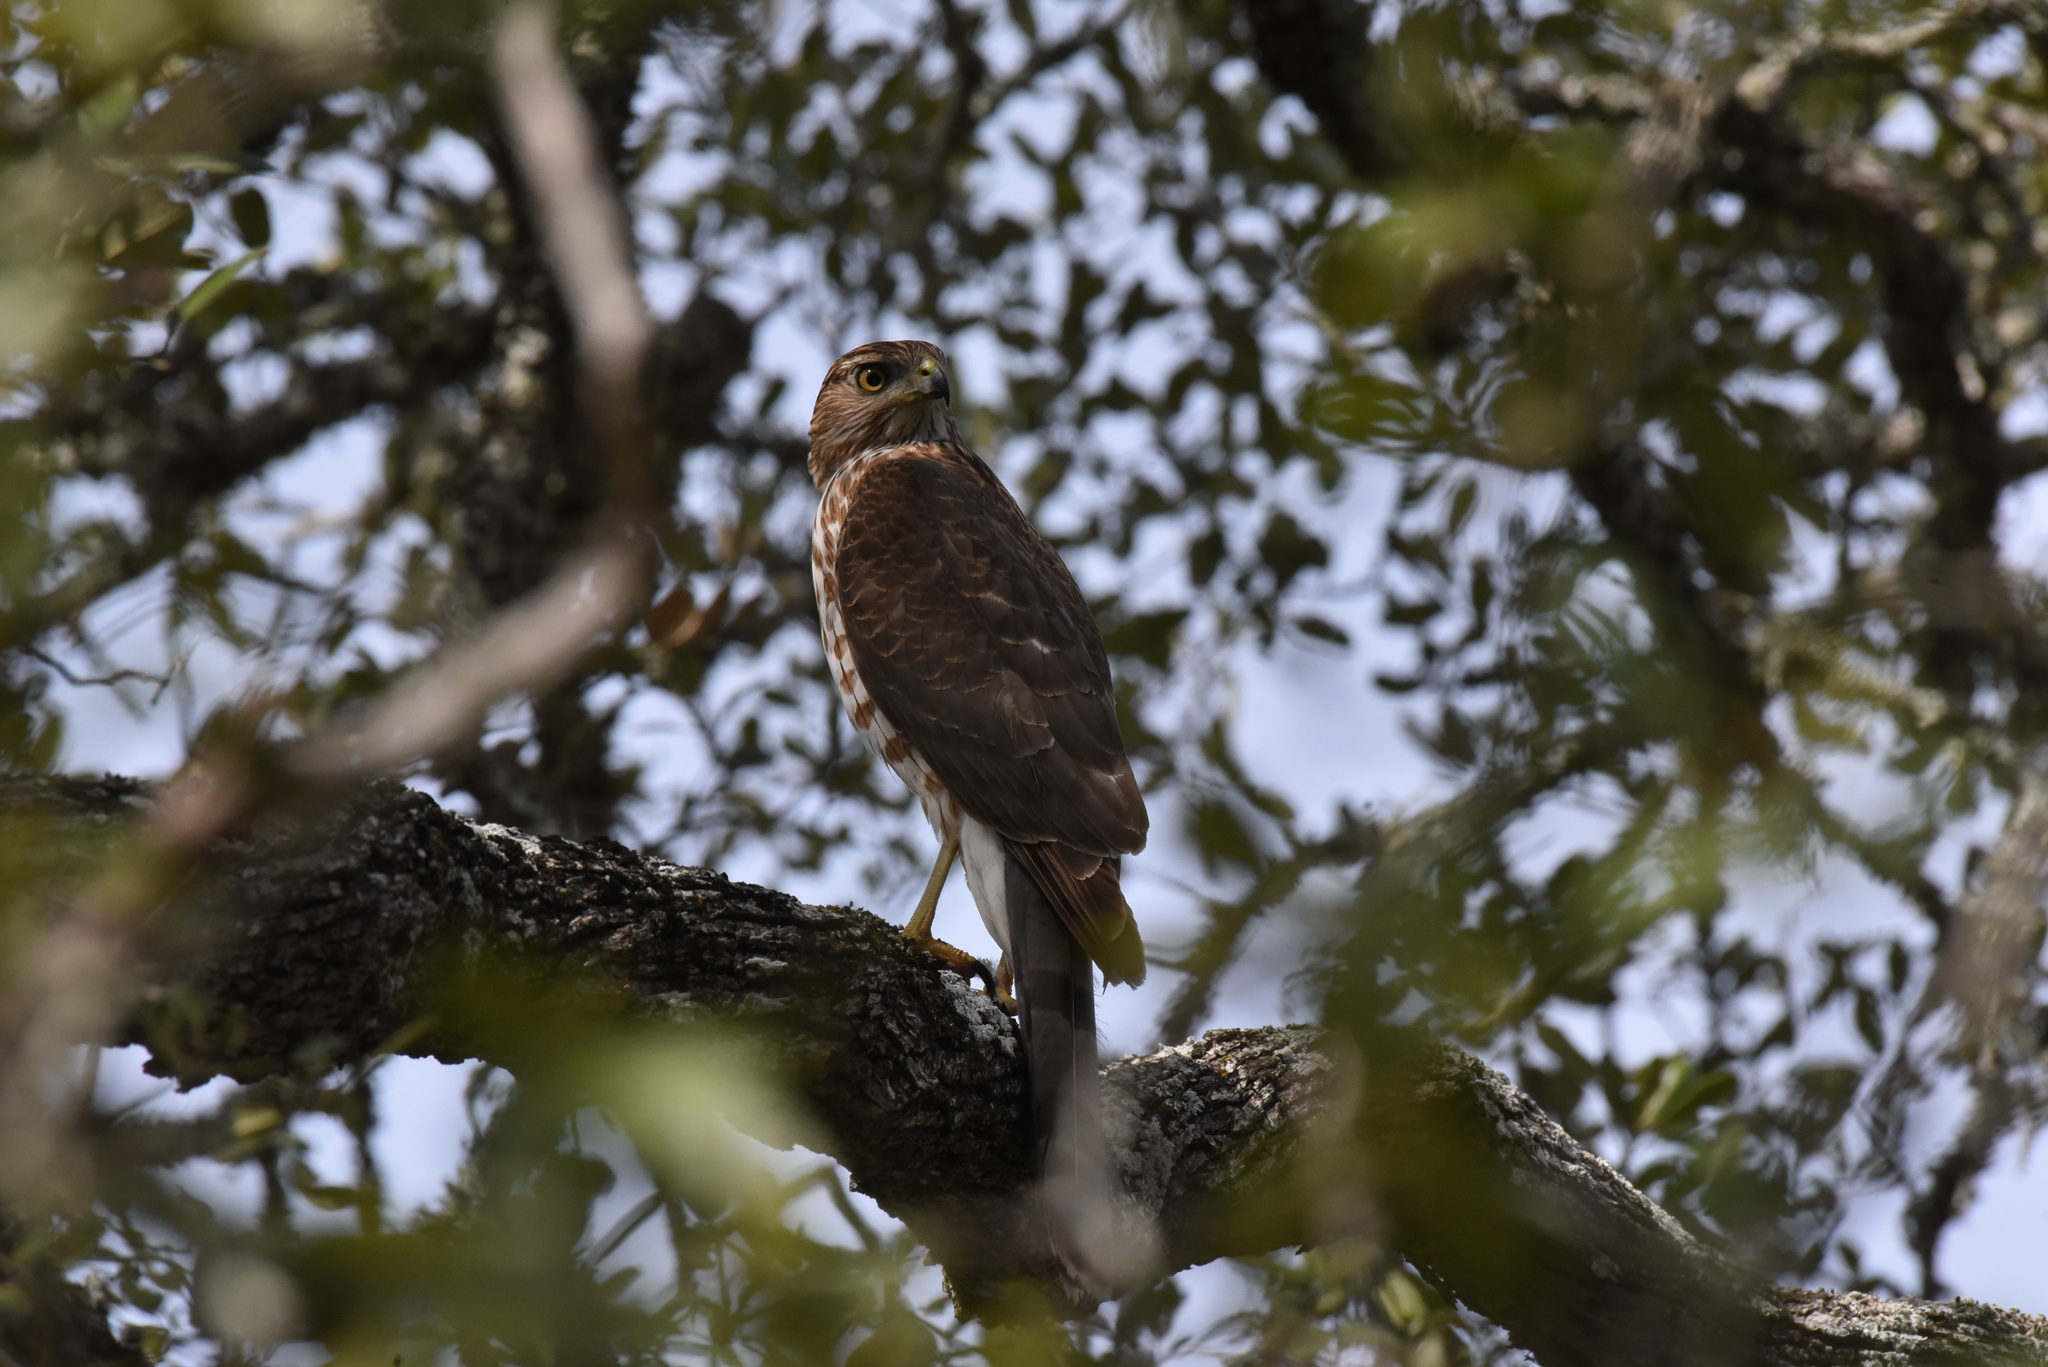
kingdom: Animalia
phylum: Chordata
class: Aves
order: Accipitriformes
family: Accipitridae
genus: Accipiter
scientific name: Accipiter cooperii
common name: Cooper's hawk
